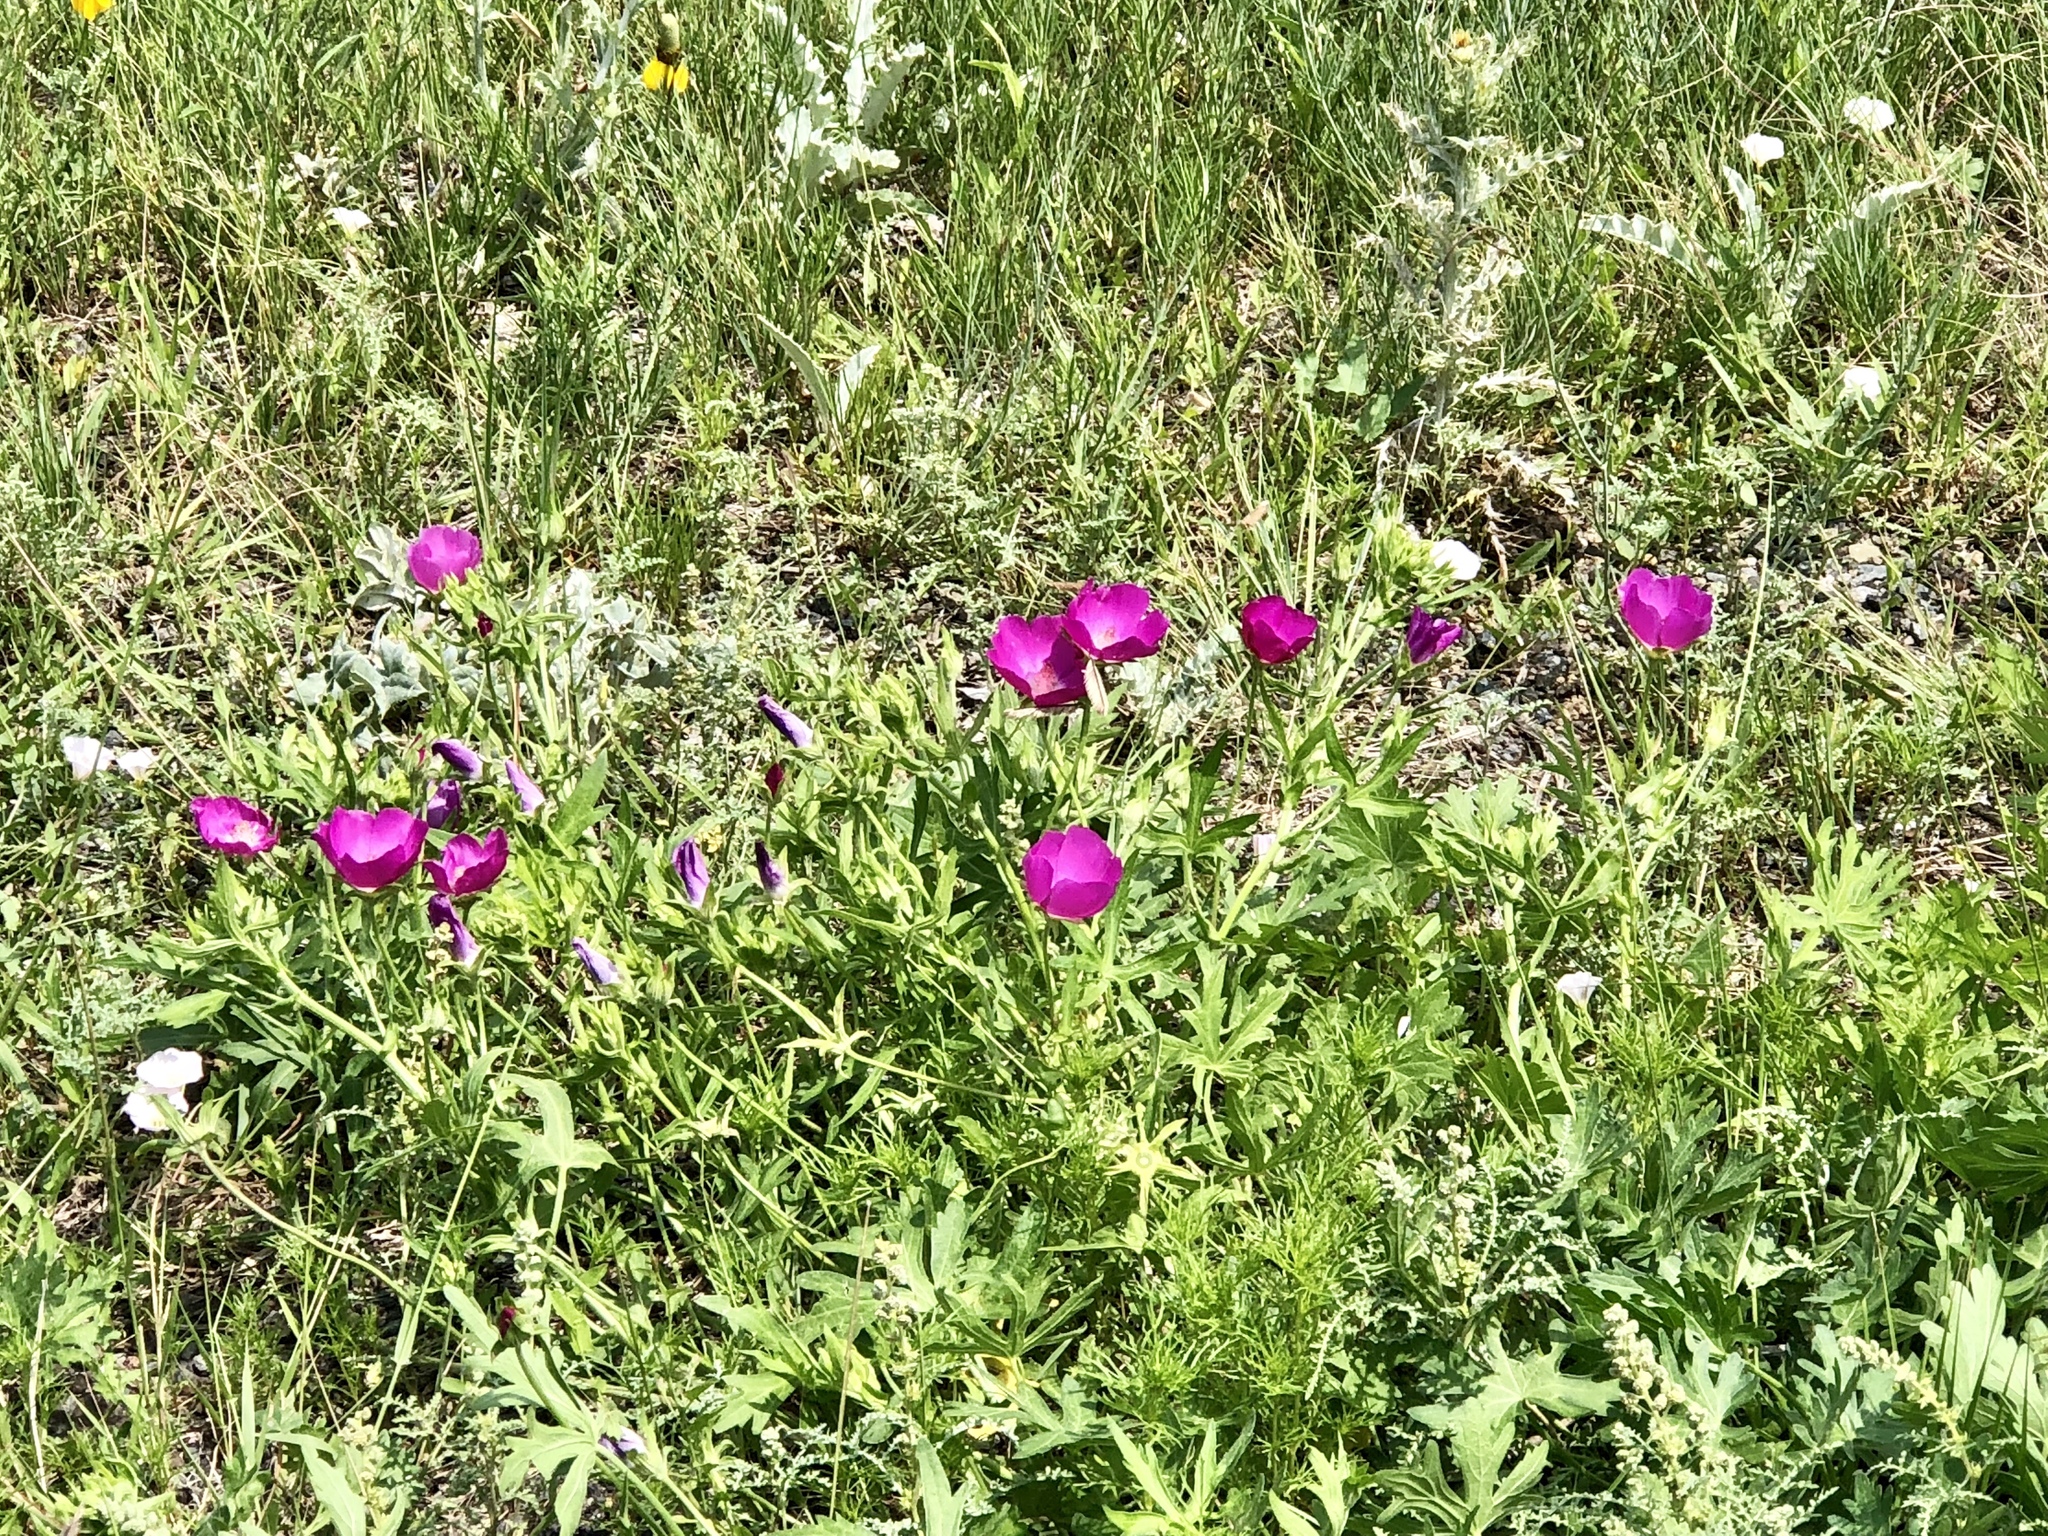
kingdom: Plantae
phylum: Tracheophyta
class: Magnoliopsida
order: Malvales
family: Malvaceae
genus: Callirhoe
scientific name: Callirhoe involucrata
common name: Purple poppy-mallow
